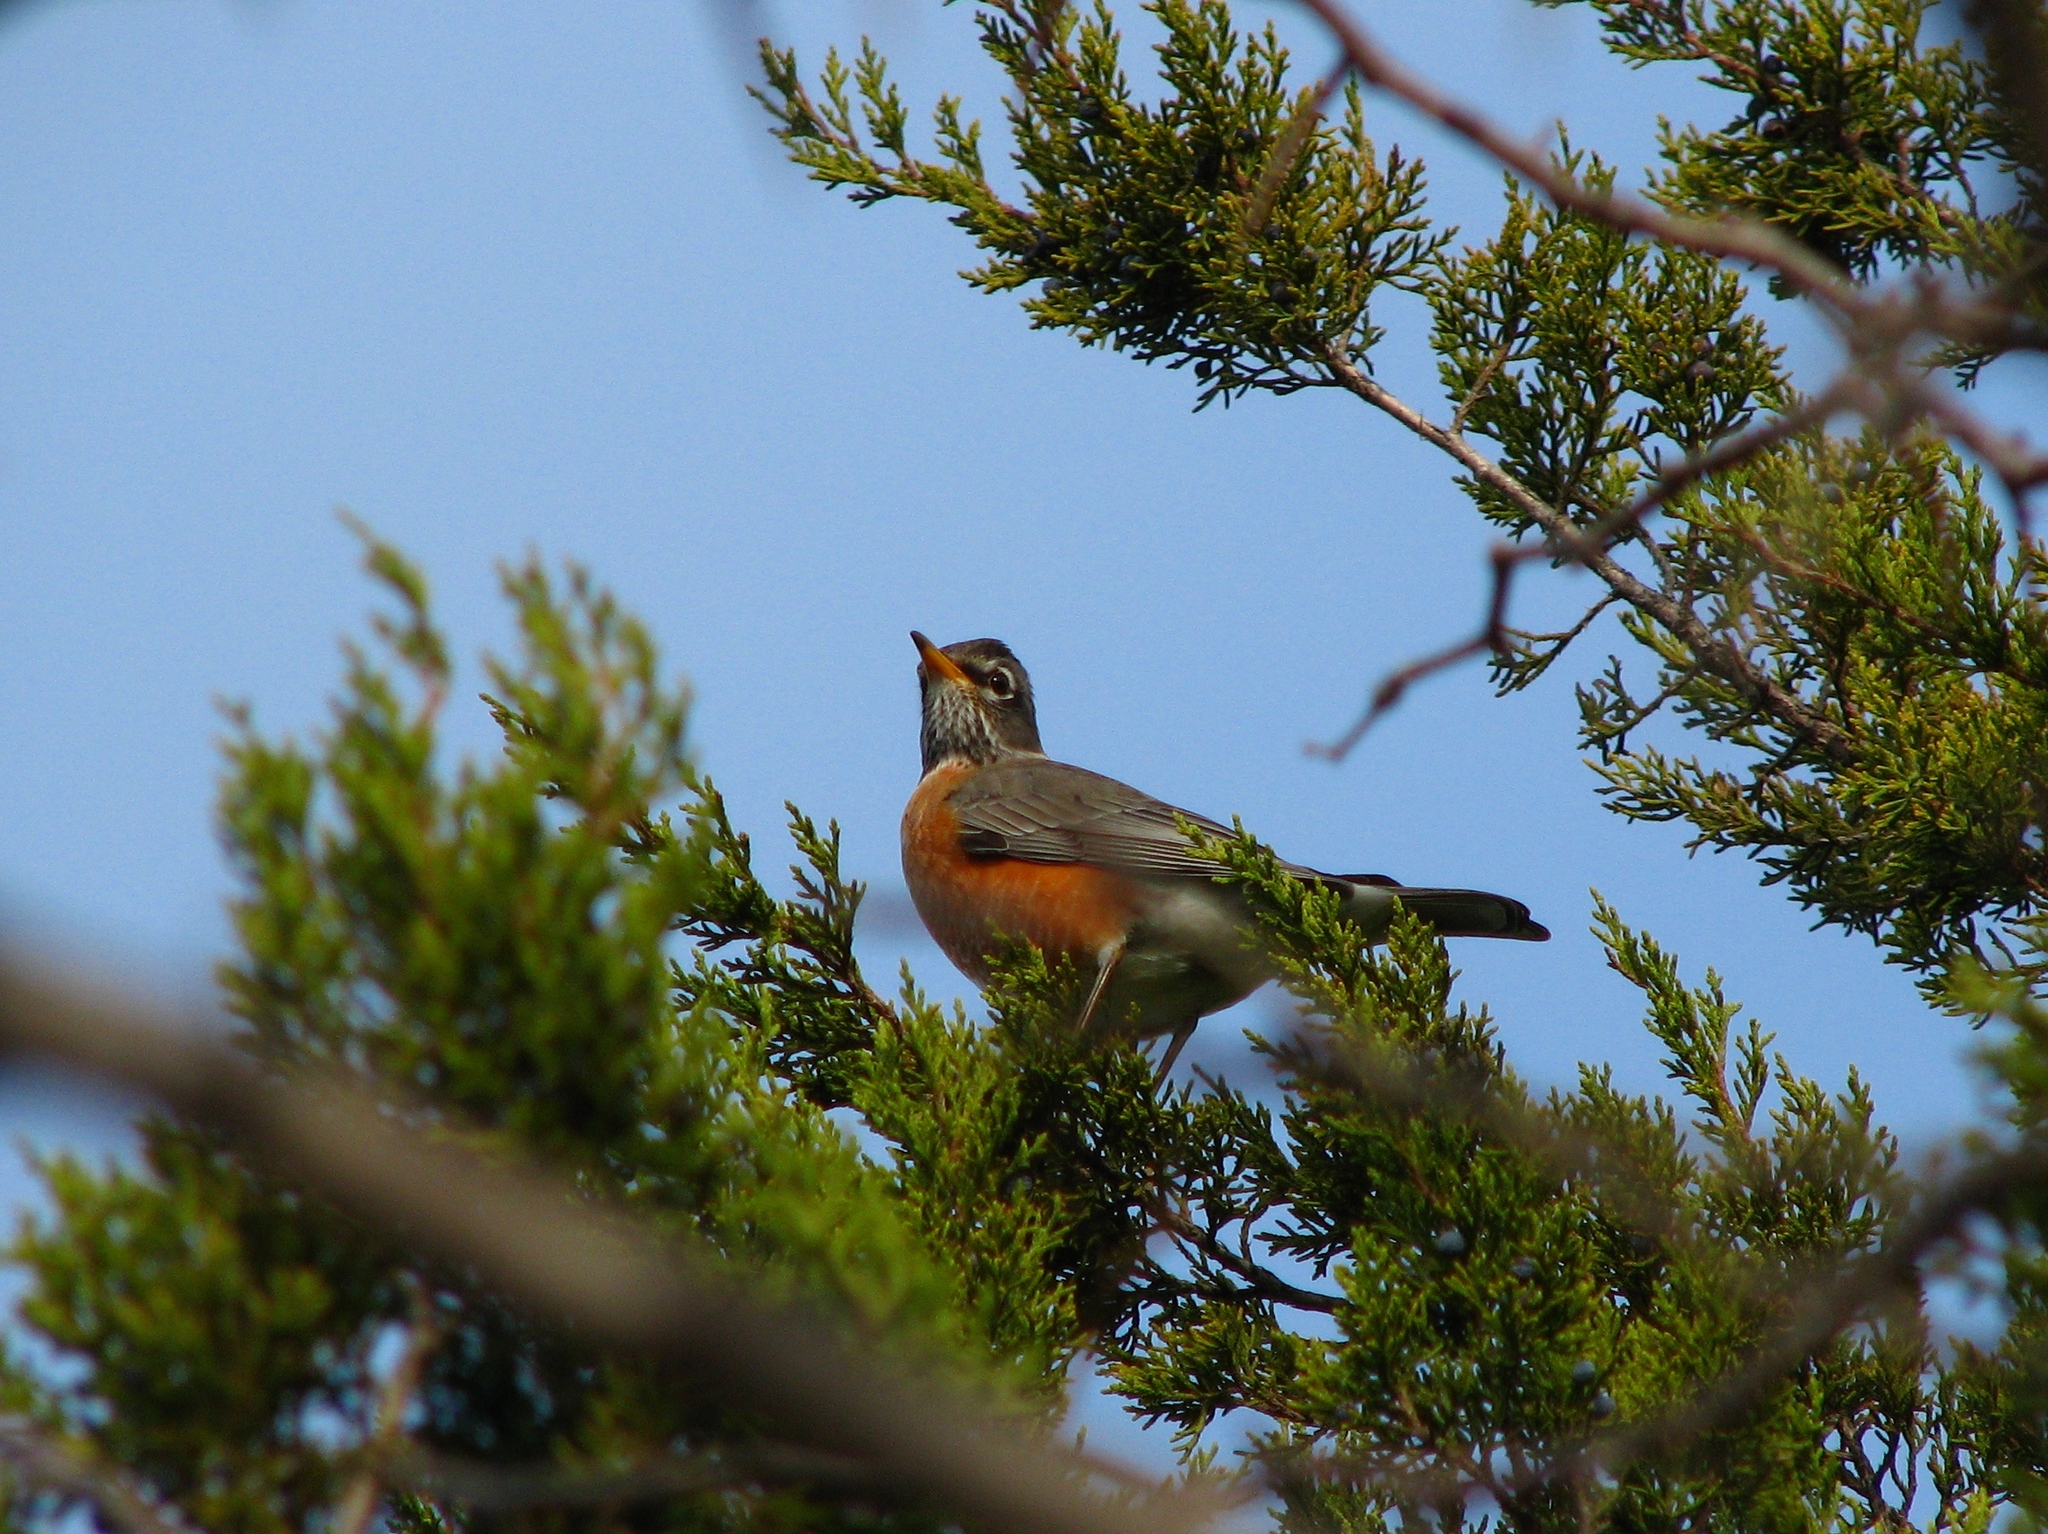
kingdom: Animalia
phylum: Chordata
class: Aves
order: Passeriformes
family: Turdidae
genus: Turdus
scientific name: Turdus migratorius
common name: American robin
